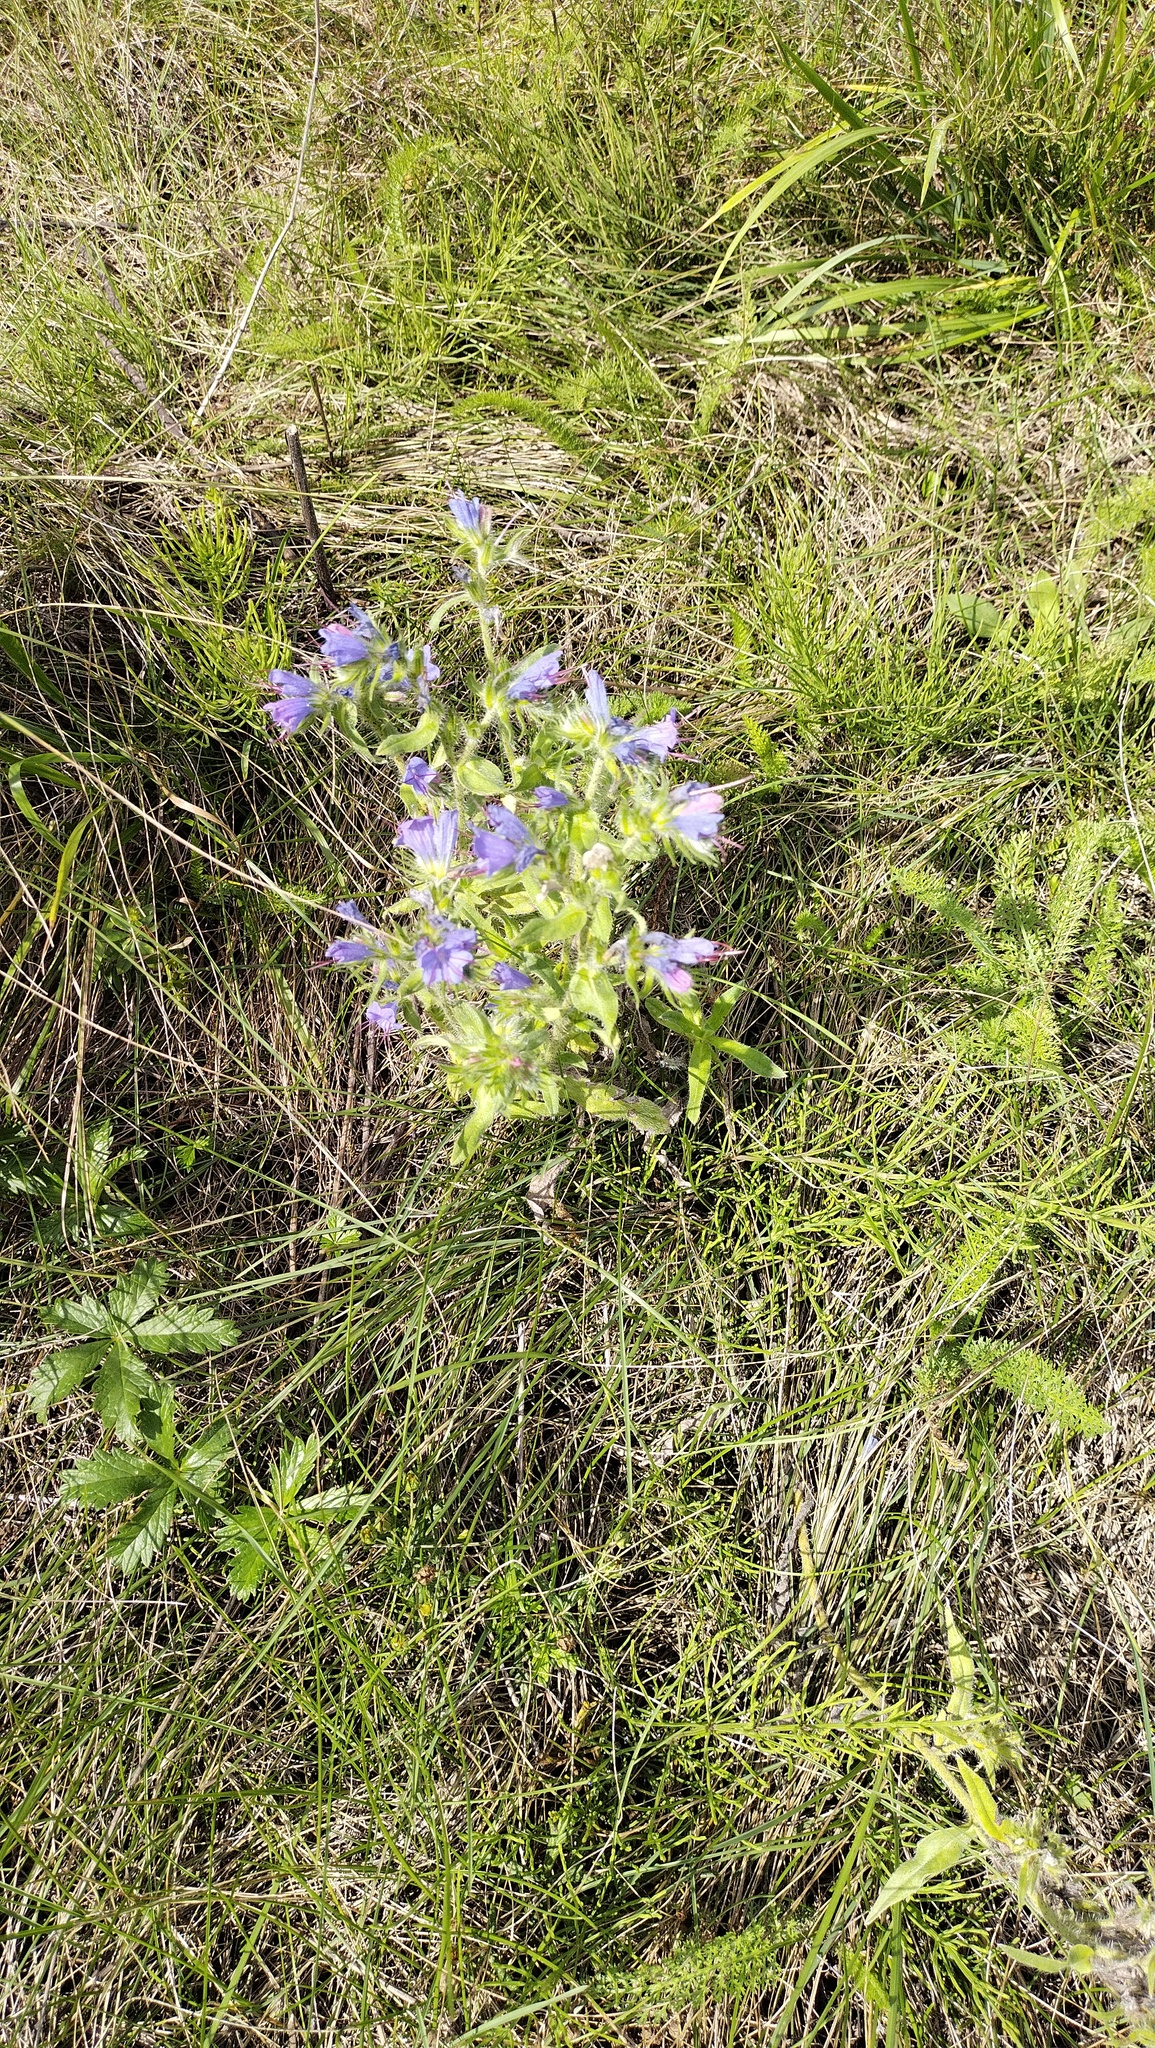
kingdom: Plantae
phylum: Tracheophyta
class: Magnoliopsida
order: Boraginales
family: Boraginaceae
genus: Echium
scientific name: Echium vulgare
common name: Common viper's bugloss
